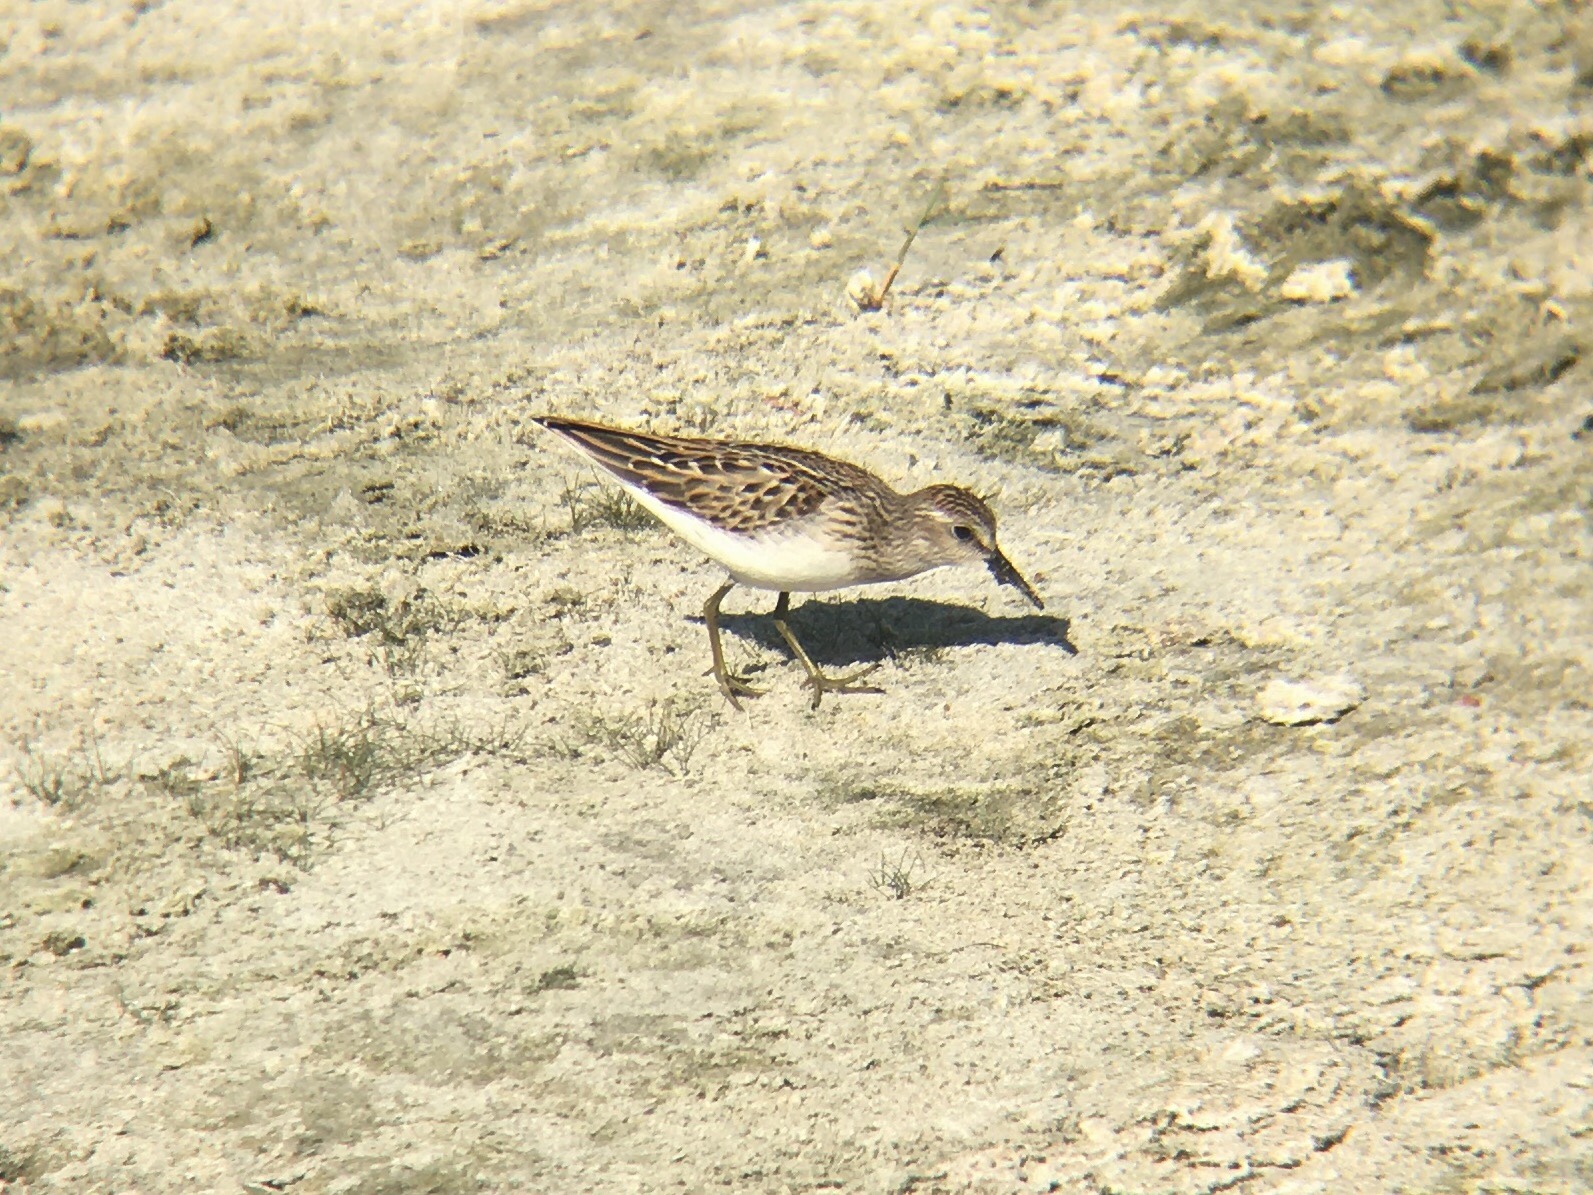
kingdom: Animalia
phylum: Chordata
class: Aves
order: Charadriiformes
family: Scolopacidae
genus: Calidris
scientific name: Calidris minutilla
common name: Least sandpiper
